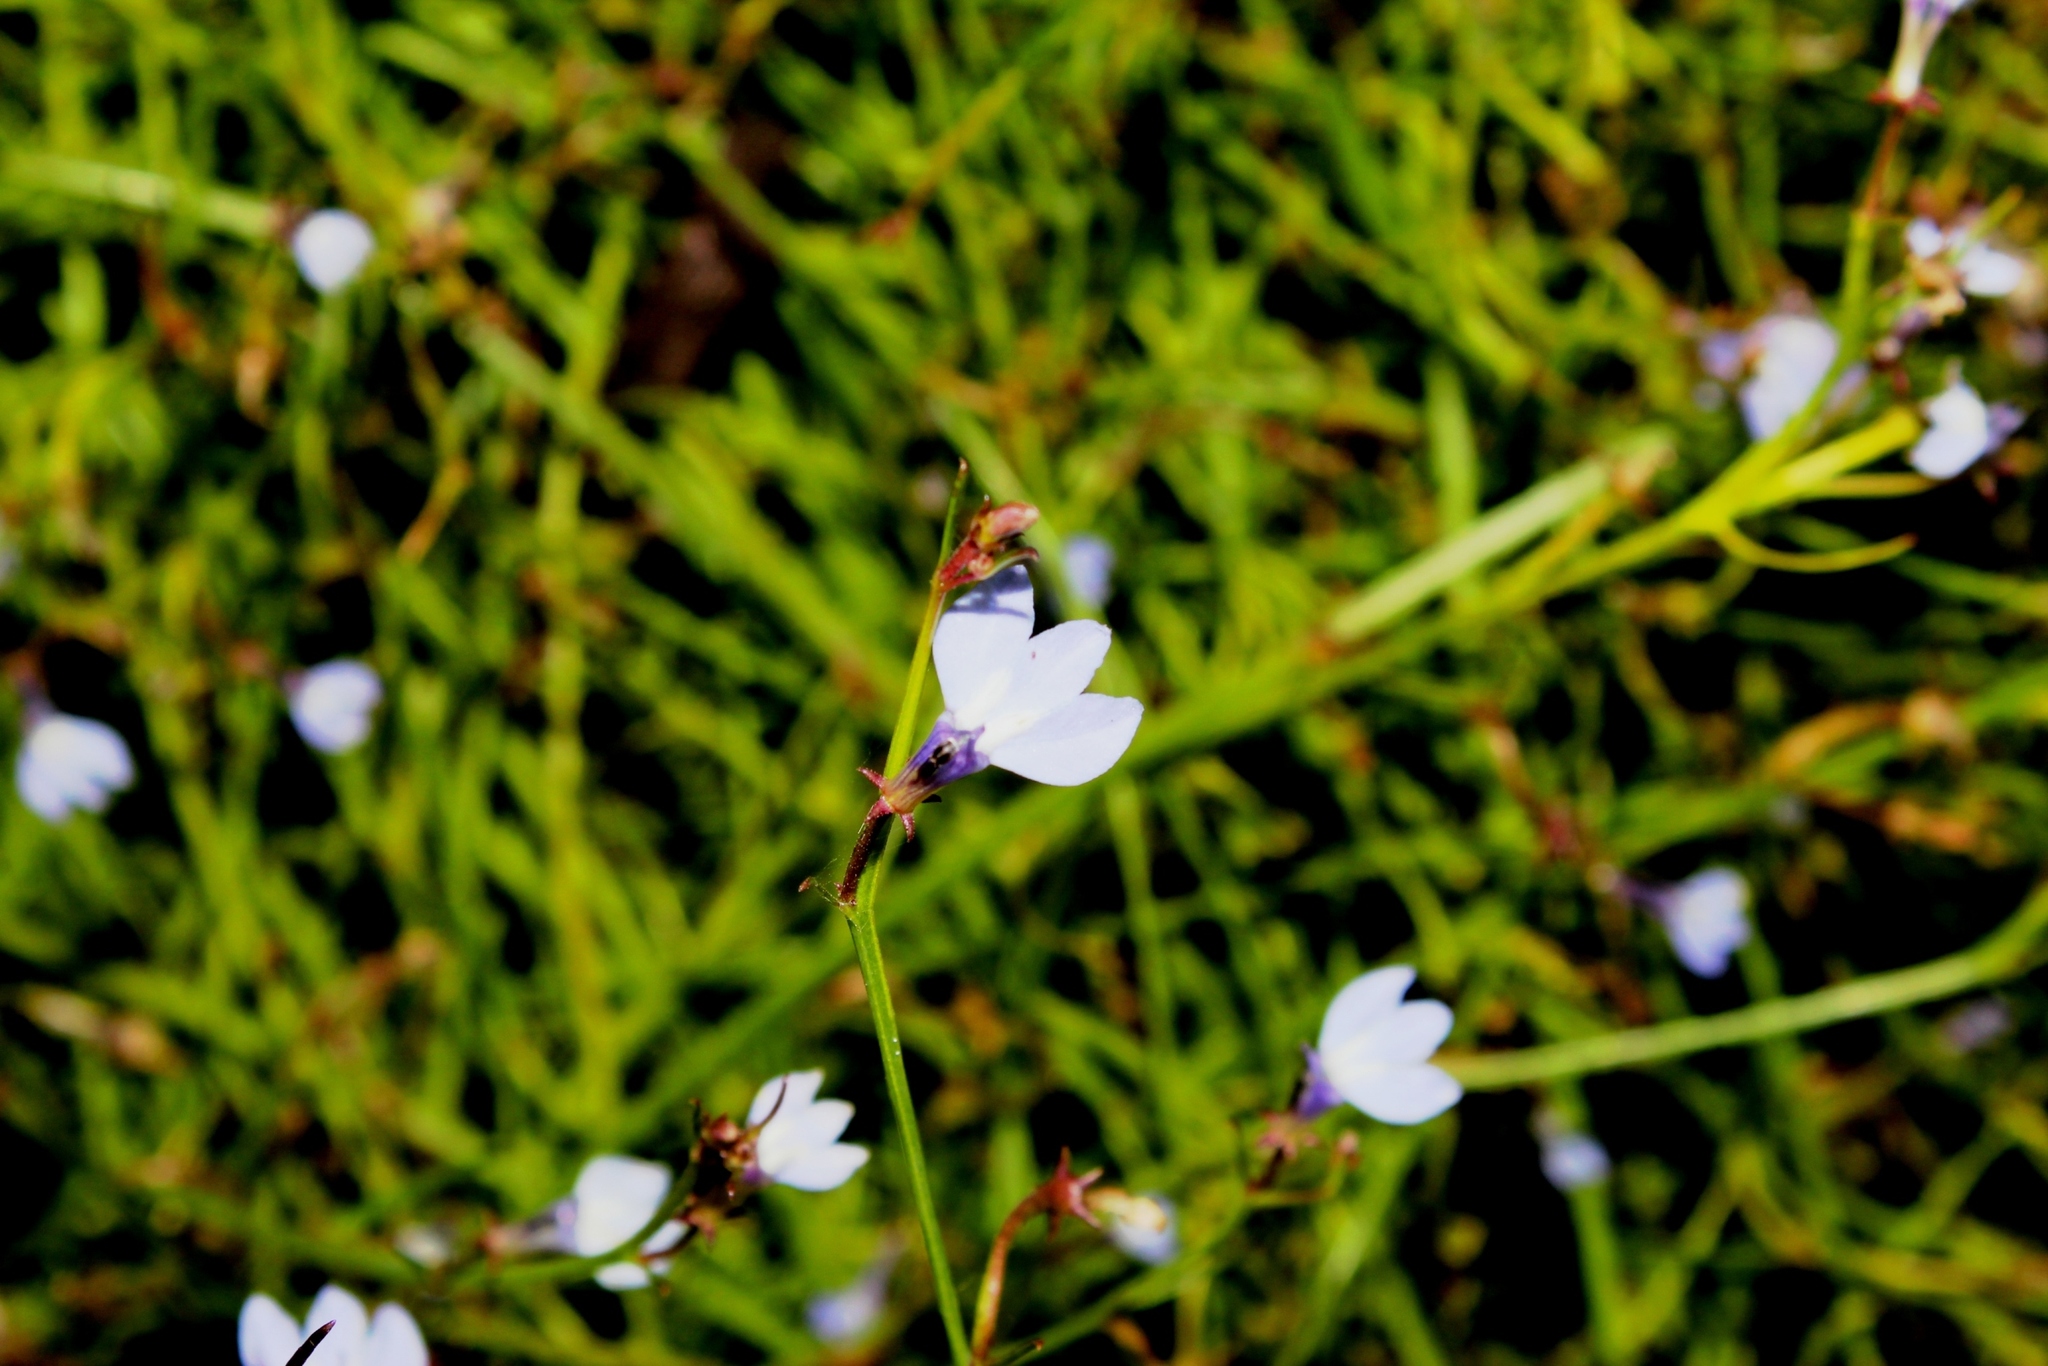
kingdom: Plantae
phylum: Tracheophyta
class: Magnoliopsida
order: Asterales
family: Campanulaceae
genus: Grammatotheca
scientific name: Grammatotheca bergiana
